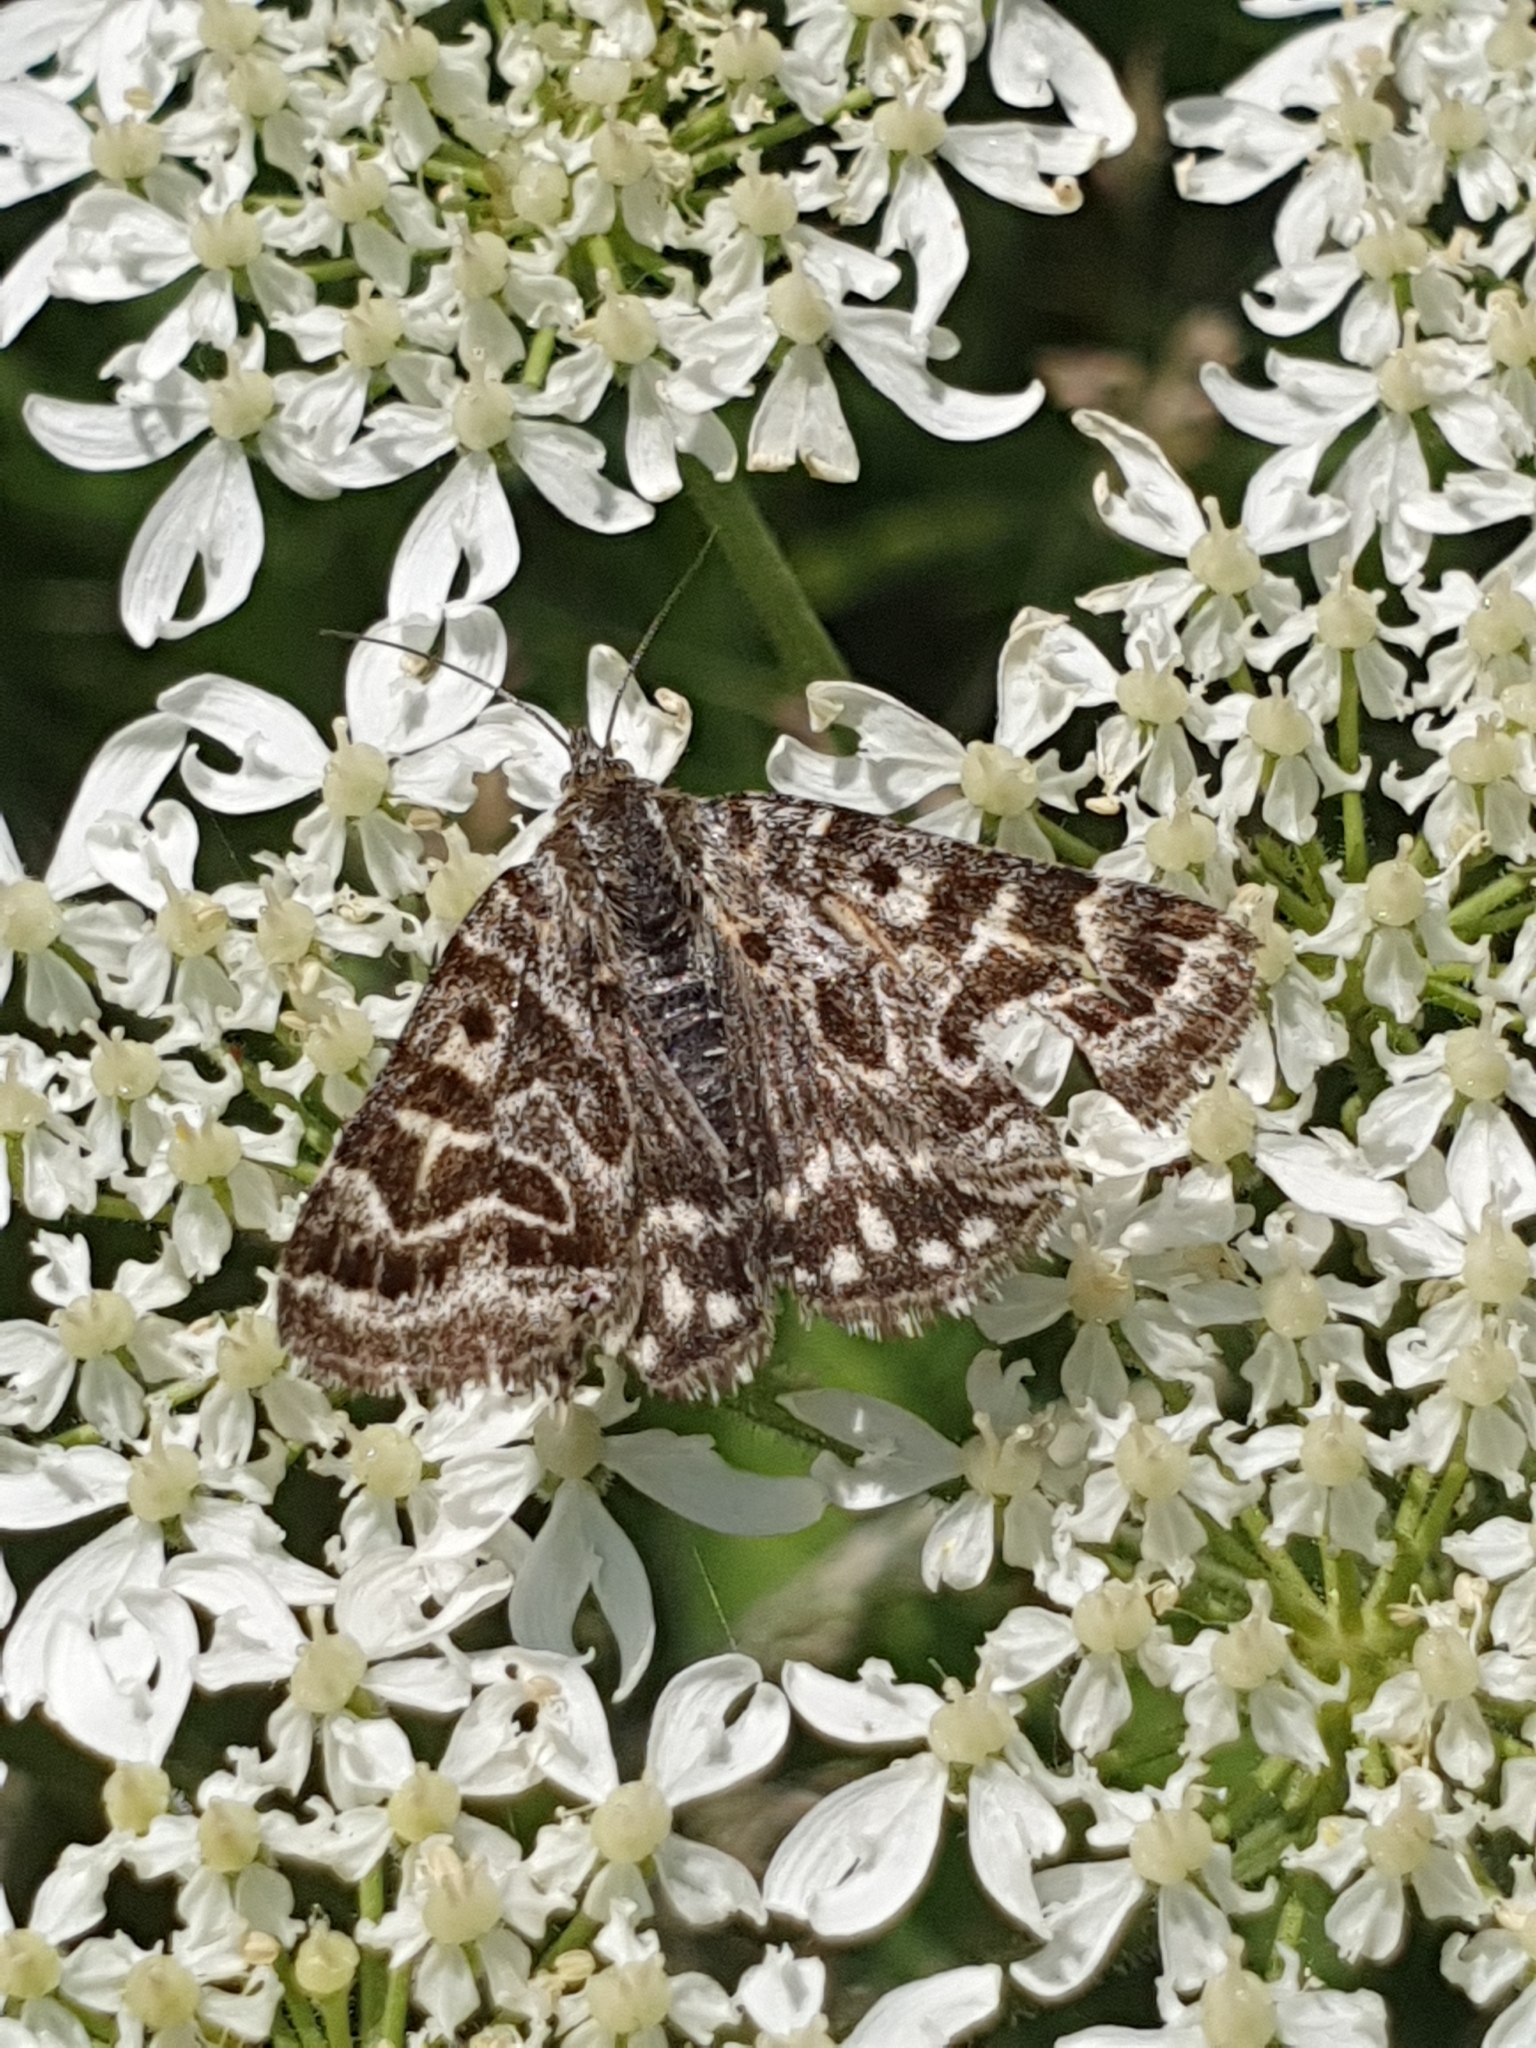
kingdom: Animalia
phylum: Arthropoda
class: Insecta
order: Lepidoptera
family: Erebidae
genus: Callistege
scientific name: Callistege mi
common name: Mother shipton
